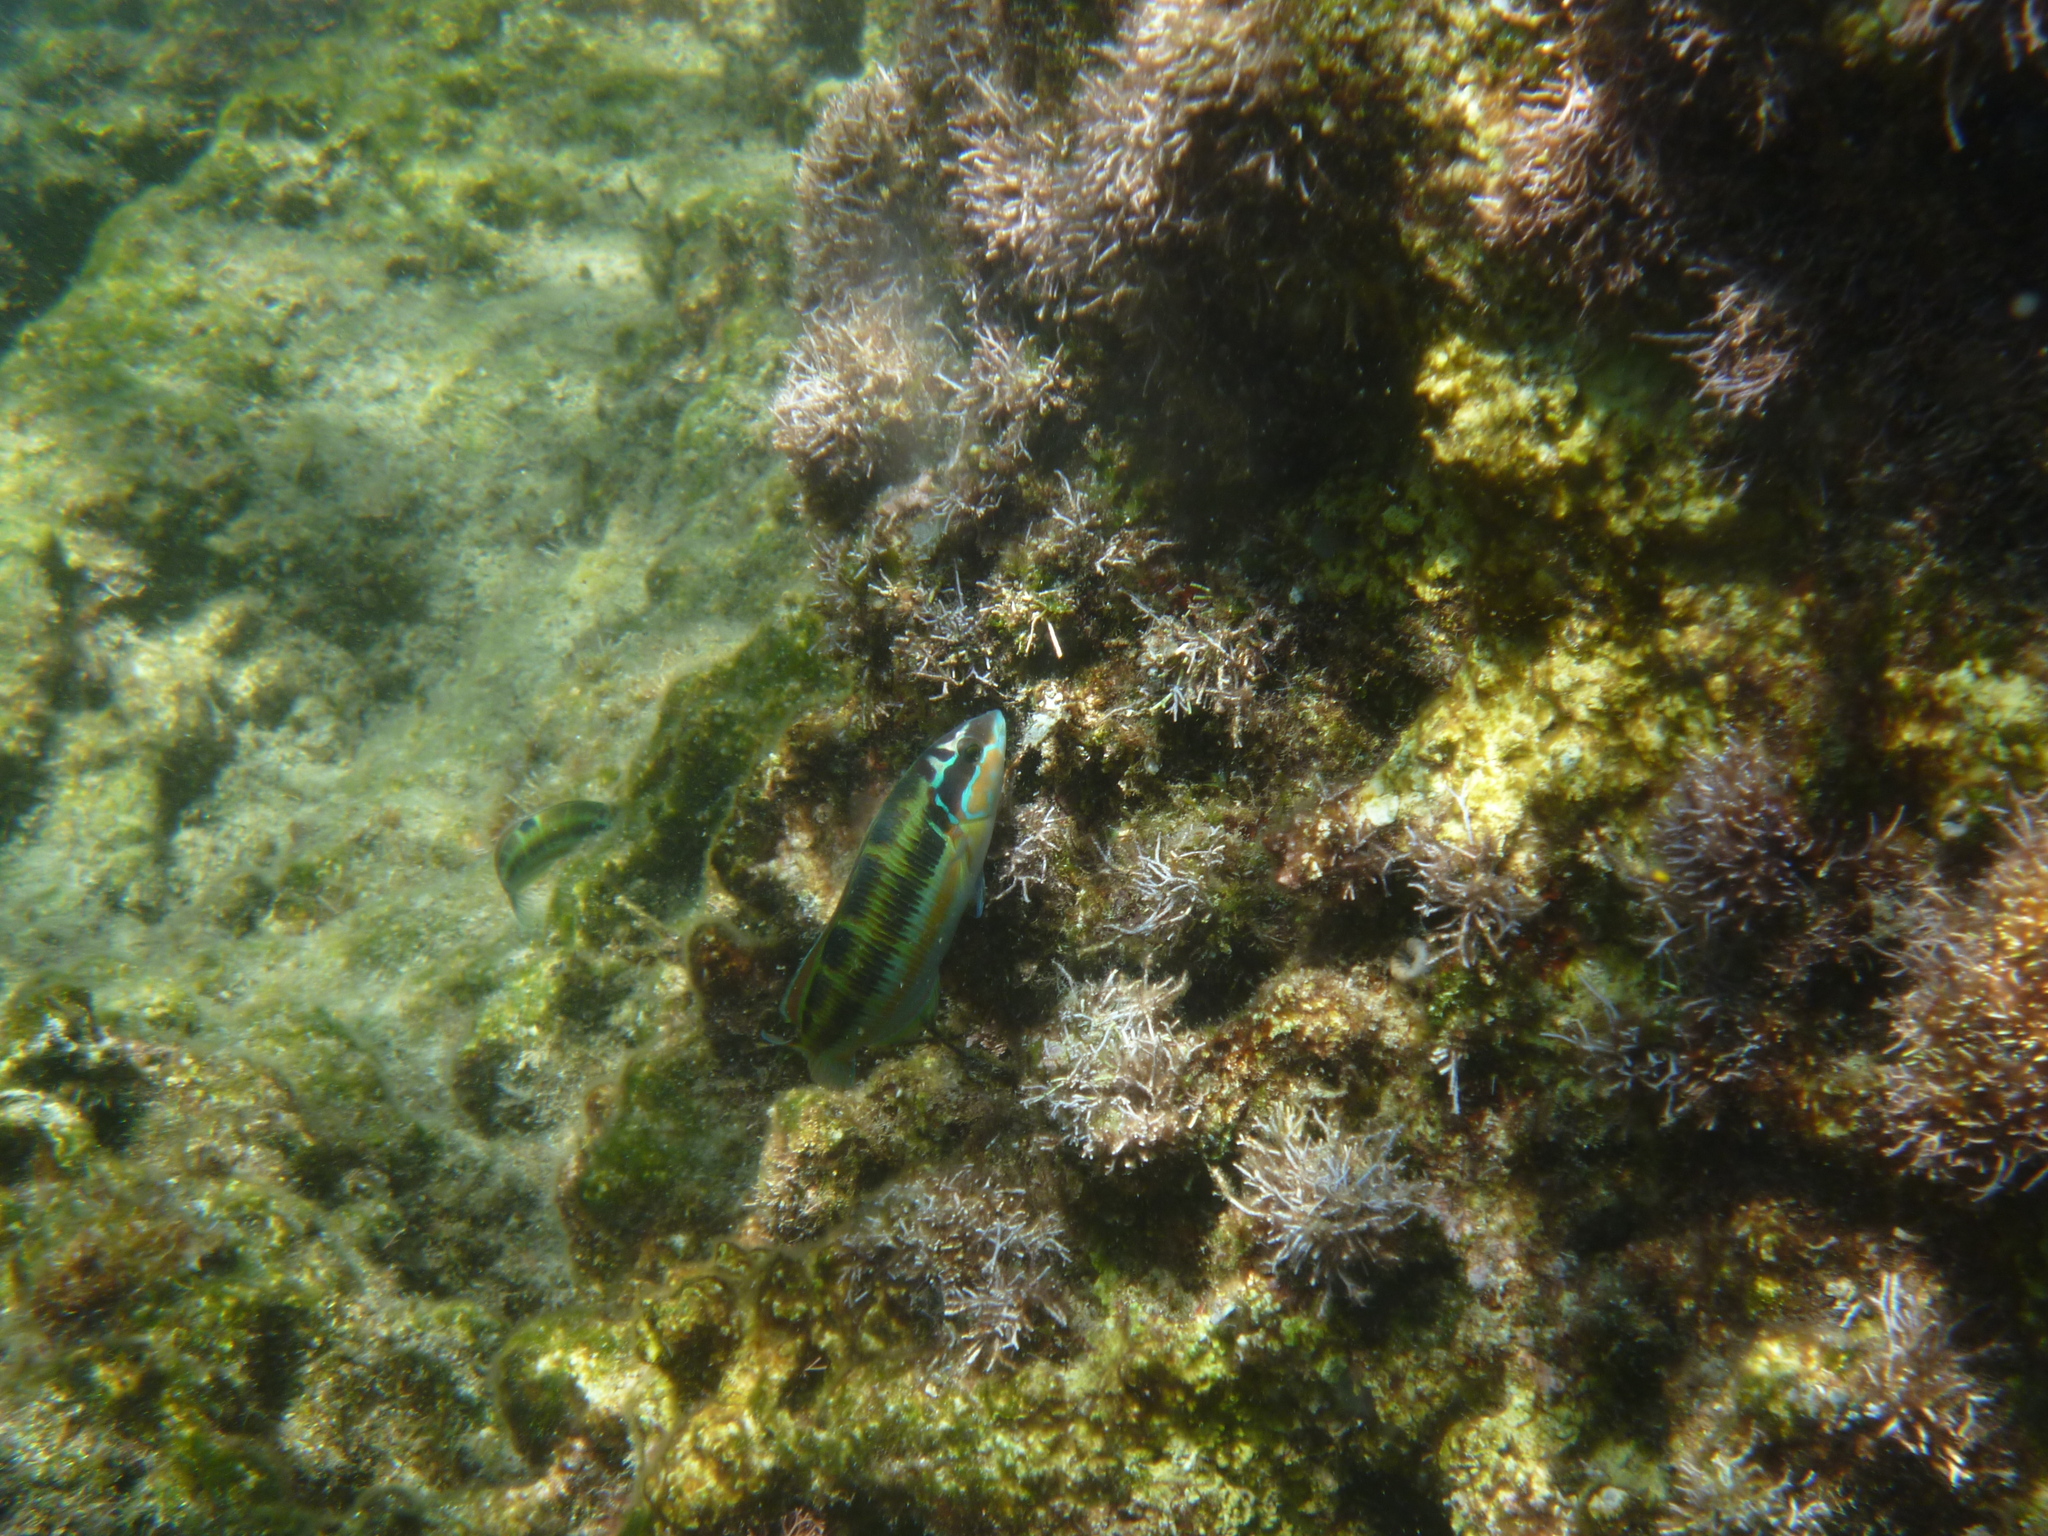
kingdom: Animalia
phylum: Chordata
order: Perciformes
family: Labridae
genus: Thalassoma
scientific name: Thalassoma pavo
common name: Ornate wrasse
